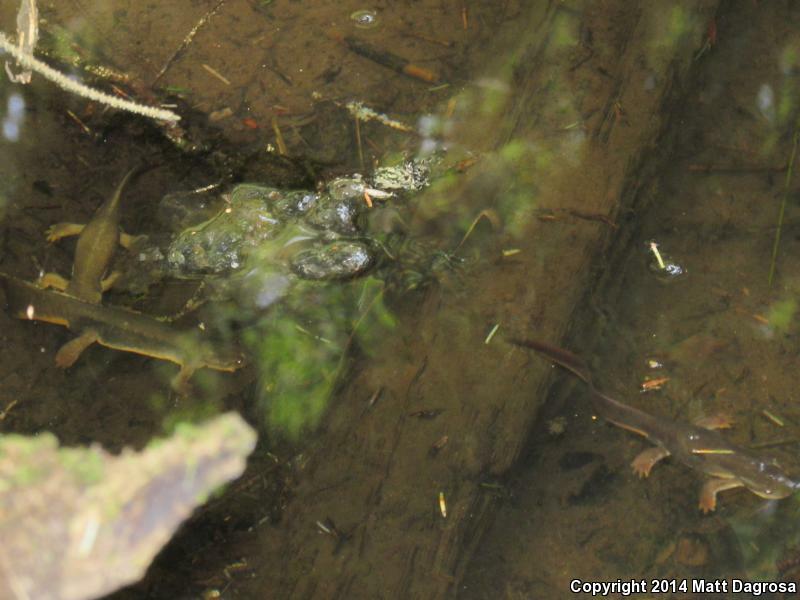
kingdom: Animalia
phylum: Chordata
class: Amphibia
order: Caudata
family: Salamandridae
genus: Taricha
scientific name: Taricha granulosa
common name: Roughskin newt
